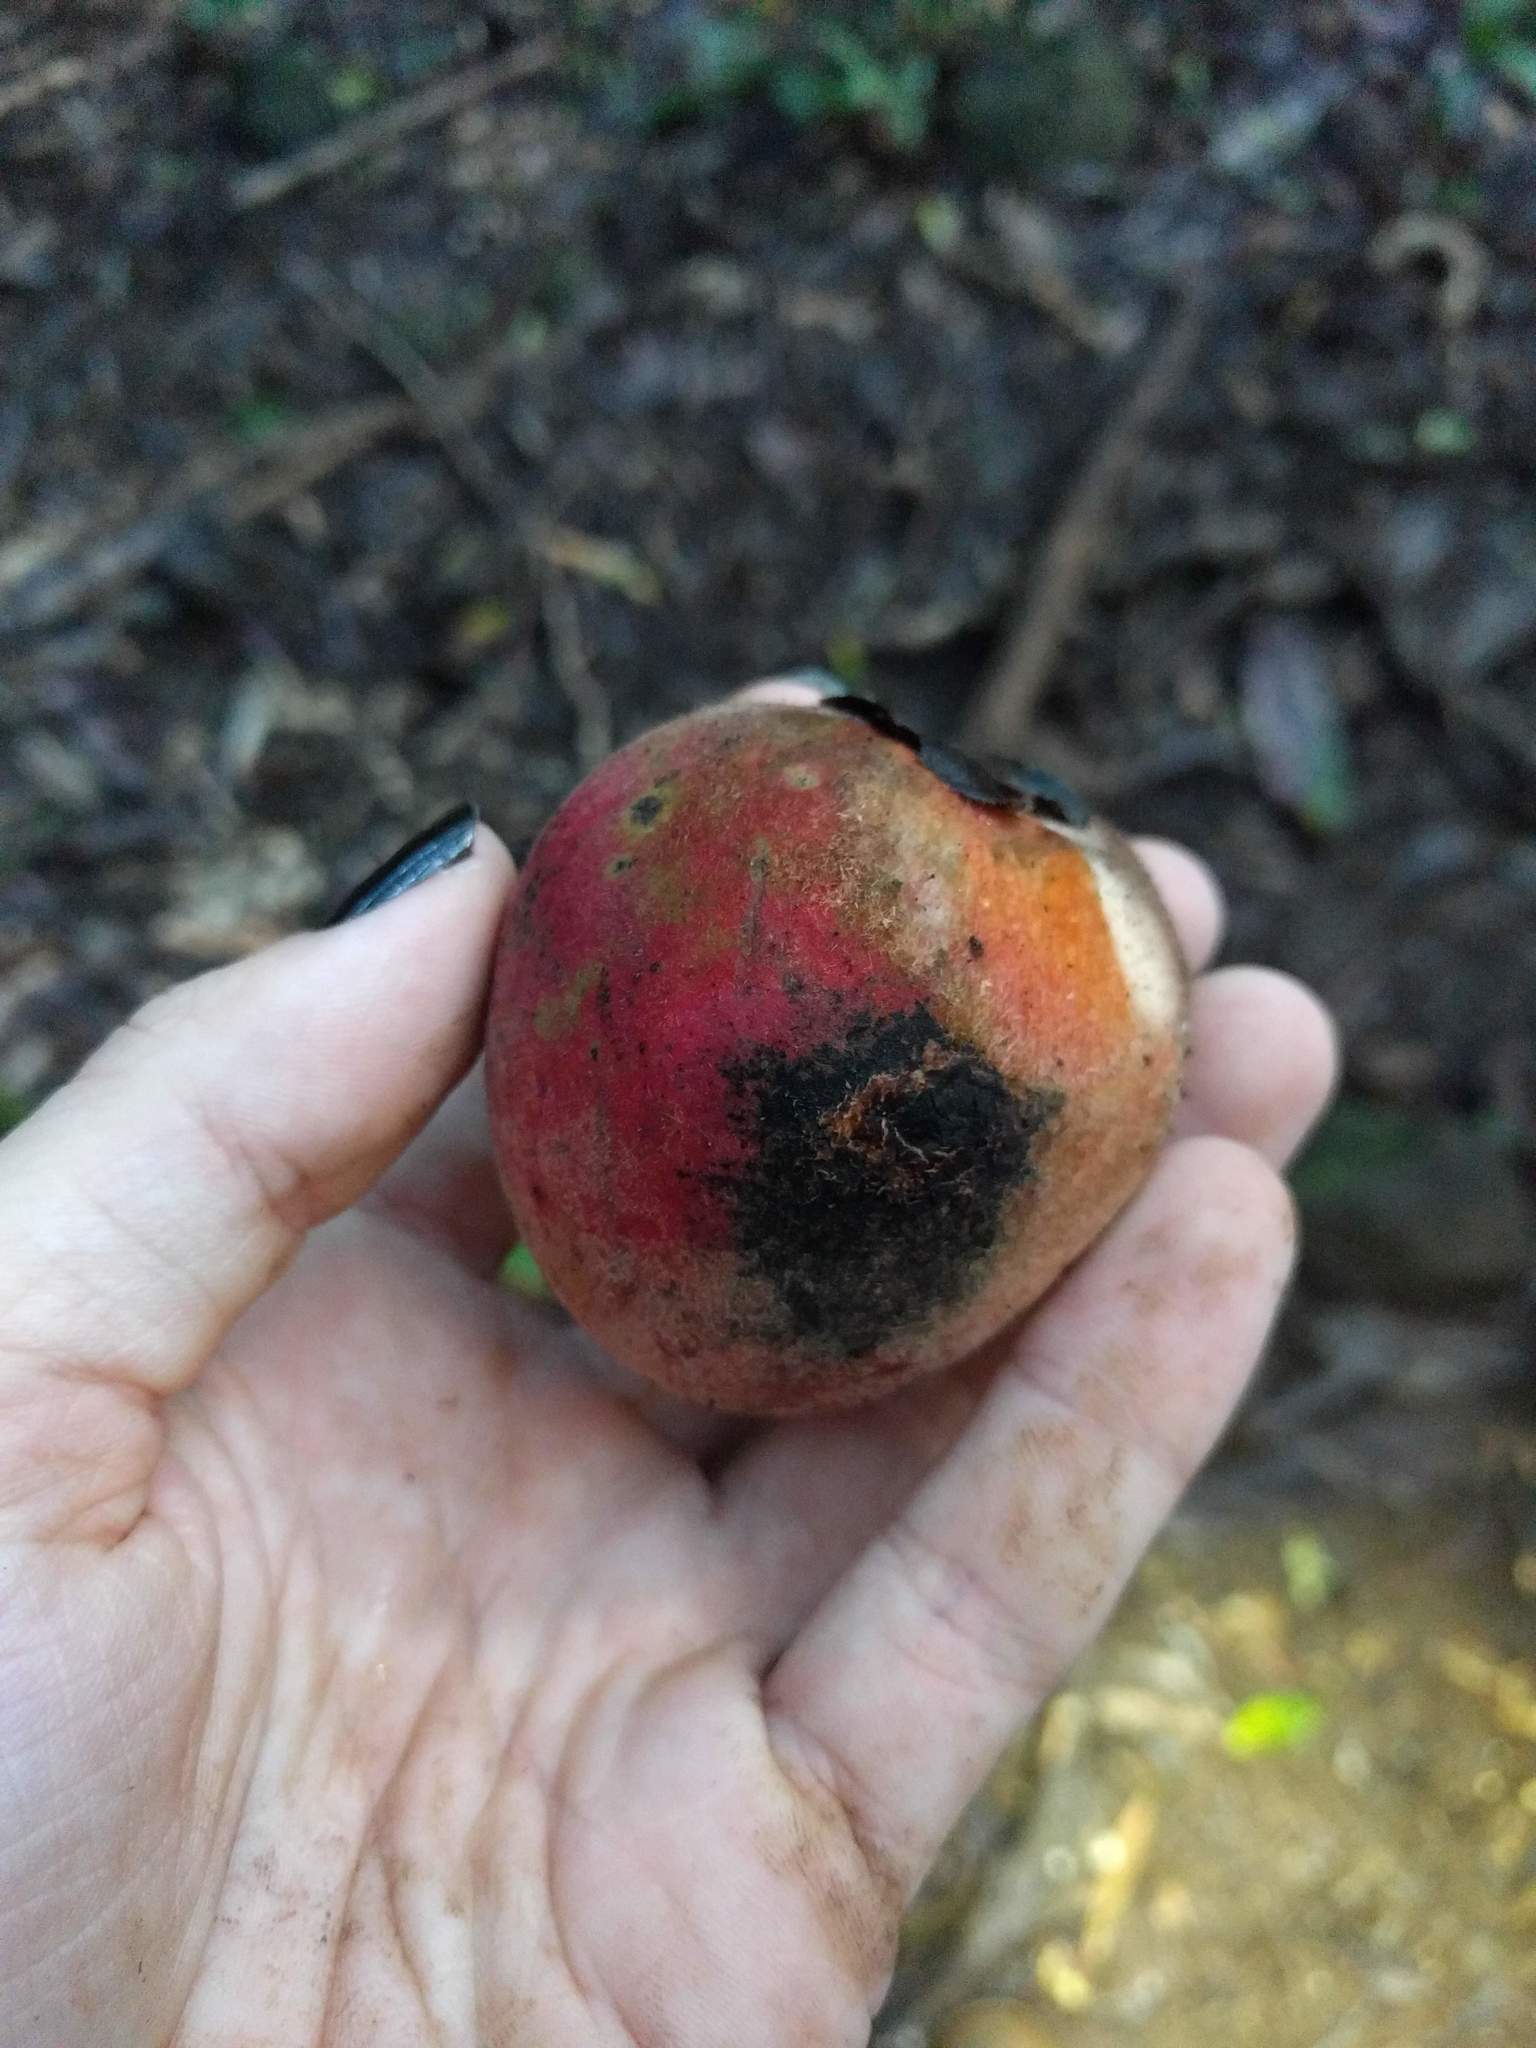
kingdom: Plantae
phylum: Tracheophyta
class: Magnoliopsida
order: Ericales
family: Ebenaceae
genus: Diospyros
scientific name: Diospyros blancoi
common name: Mabola-tree
